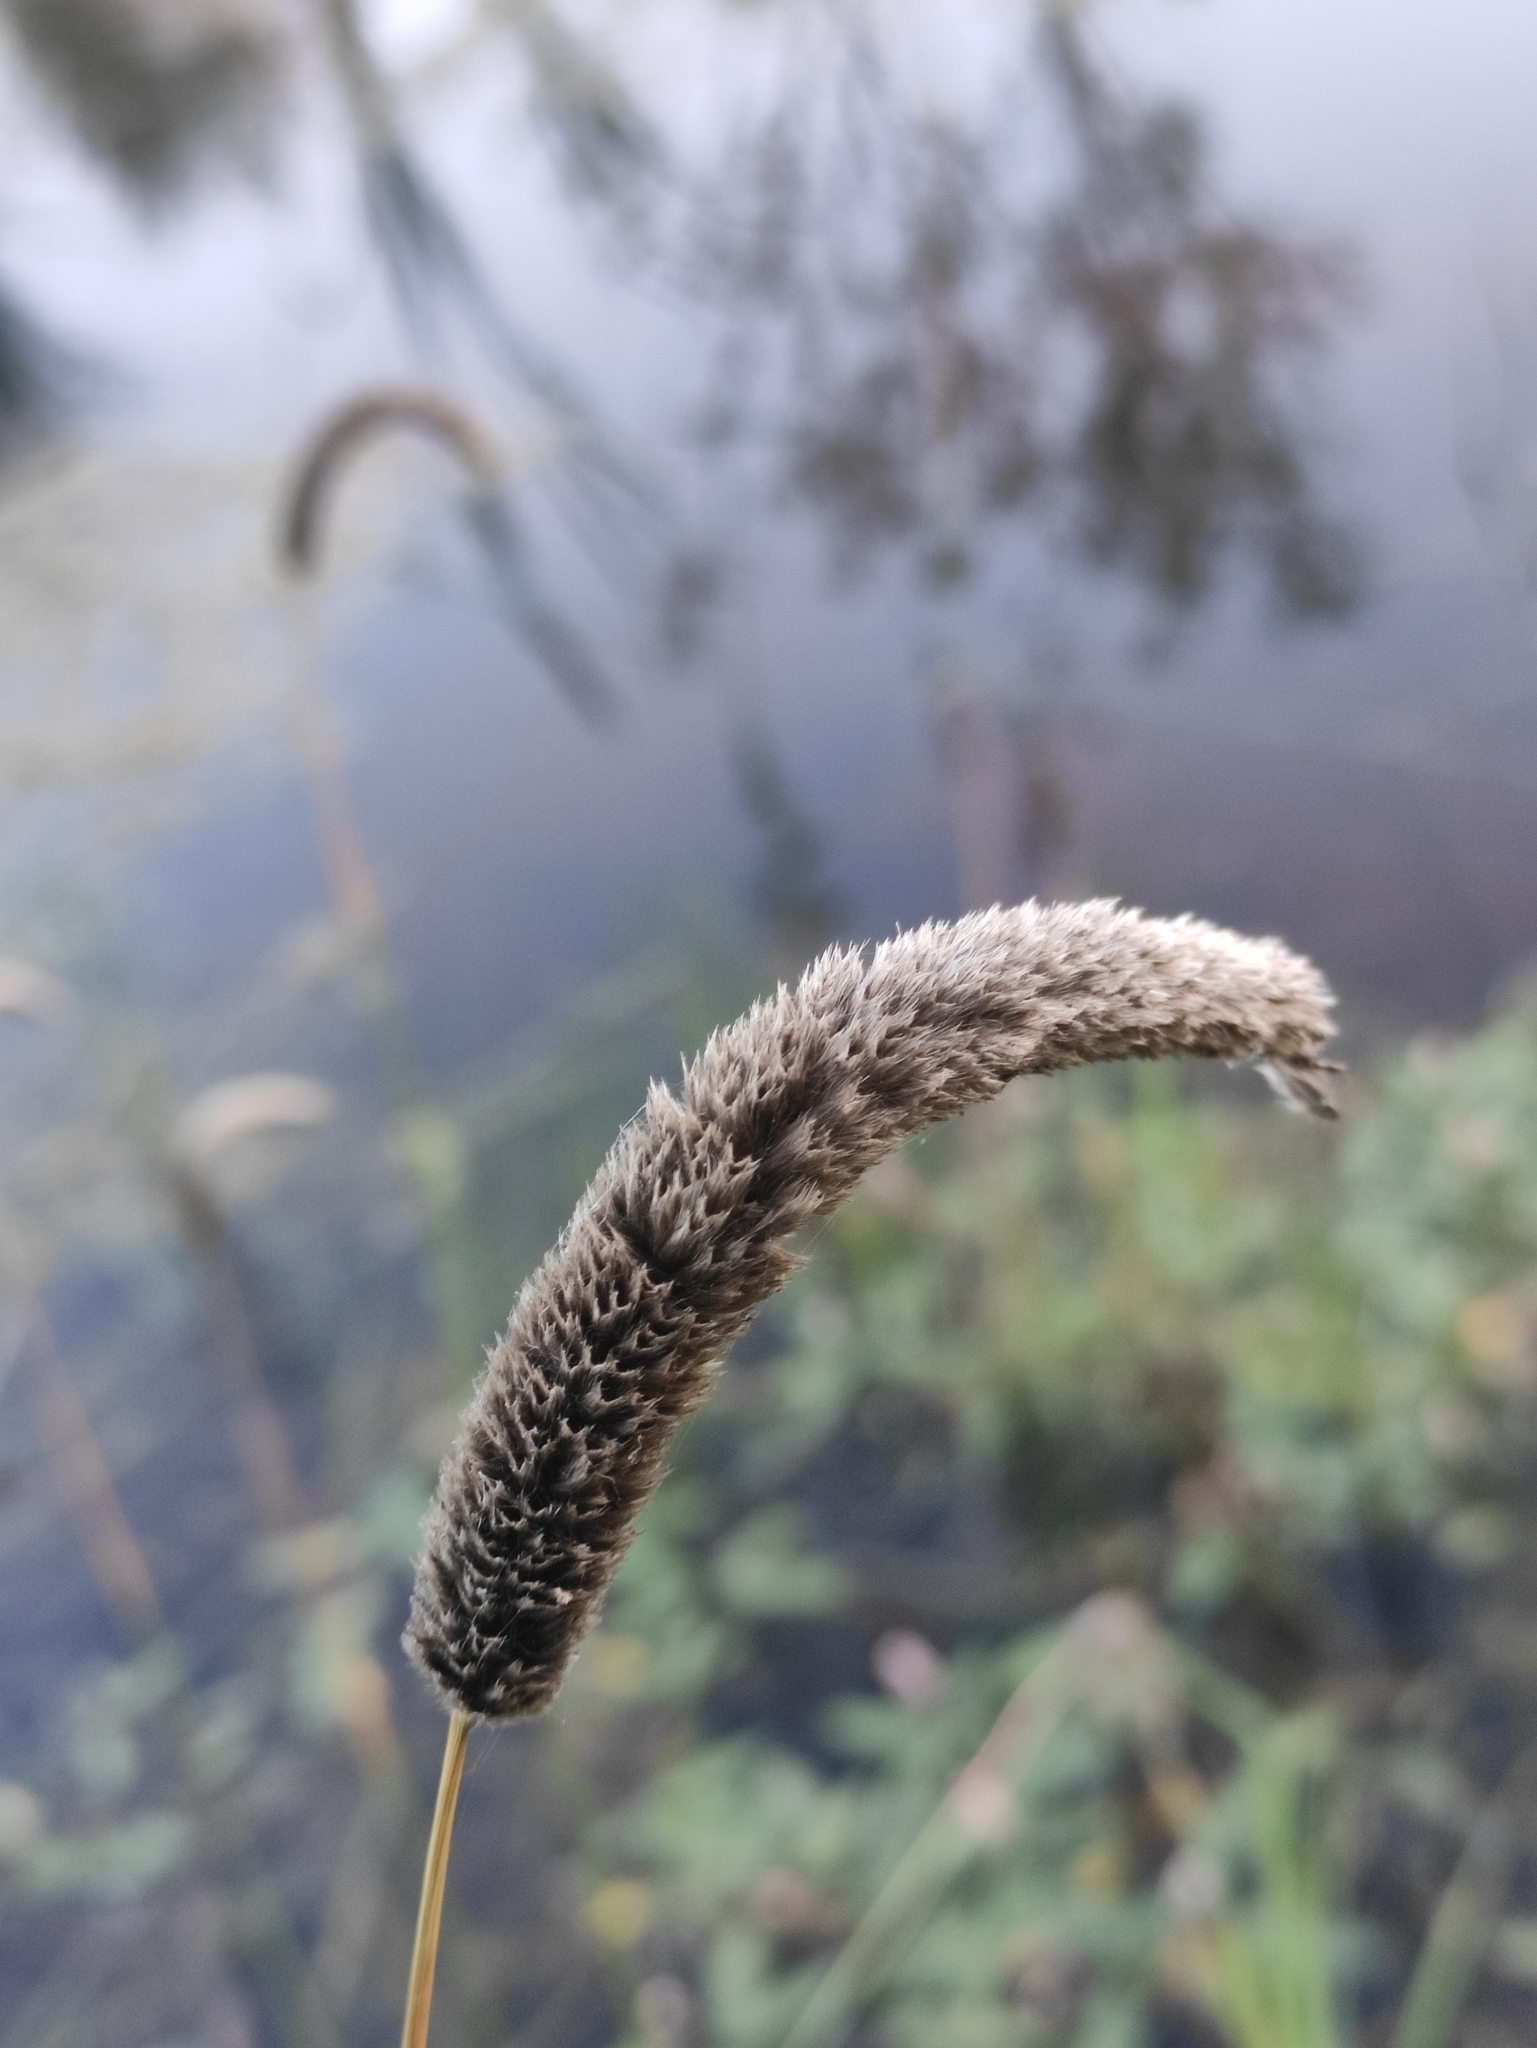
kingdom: Plantae
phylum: Tracheophyta
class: Liliopsida
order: Poales
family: Poaceae
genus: Alopecurus
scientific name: Alopecurus pratensis
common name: Meadow foxtail
